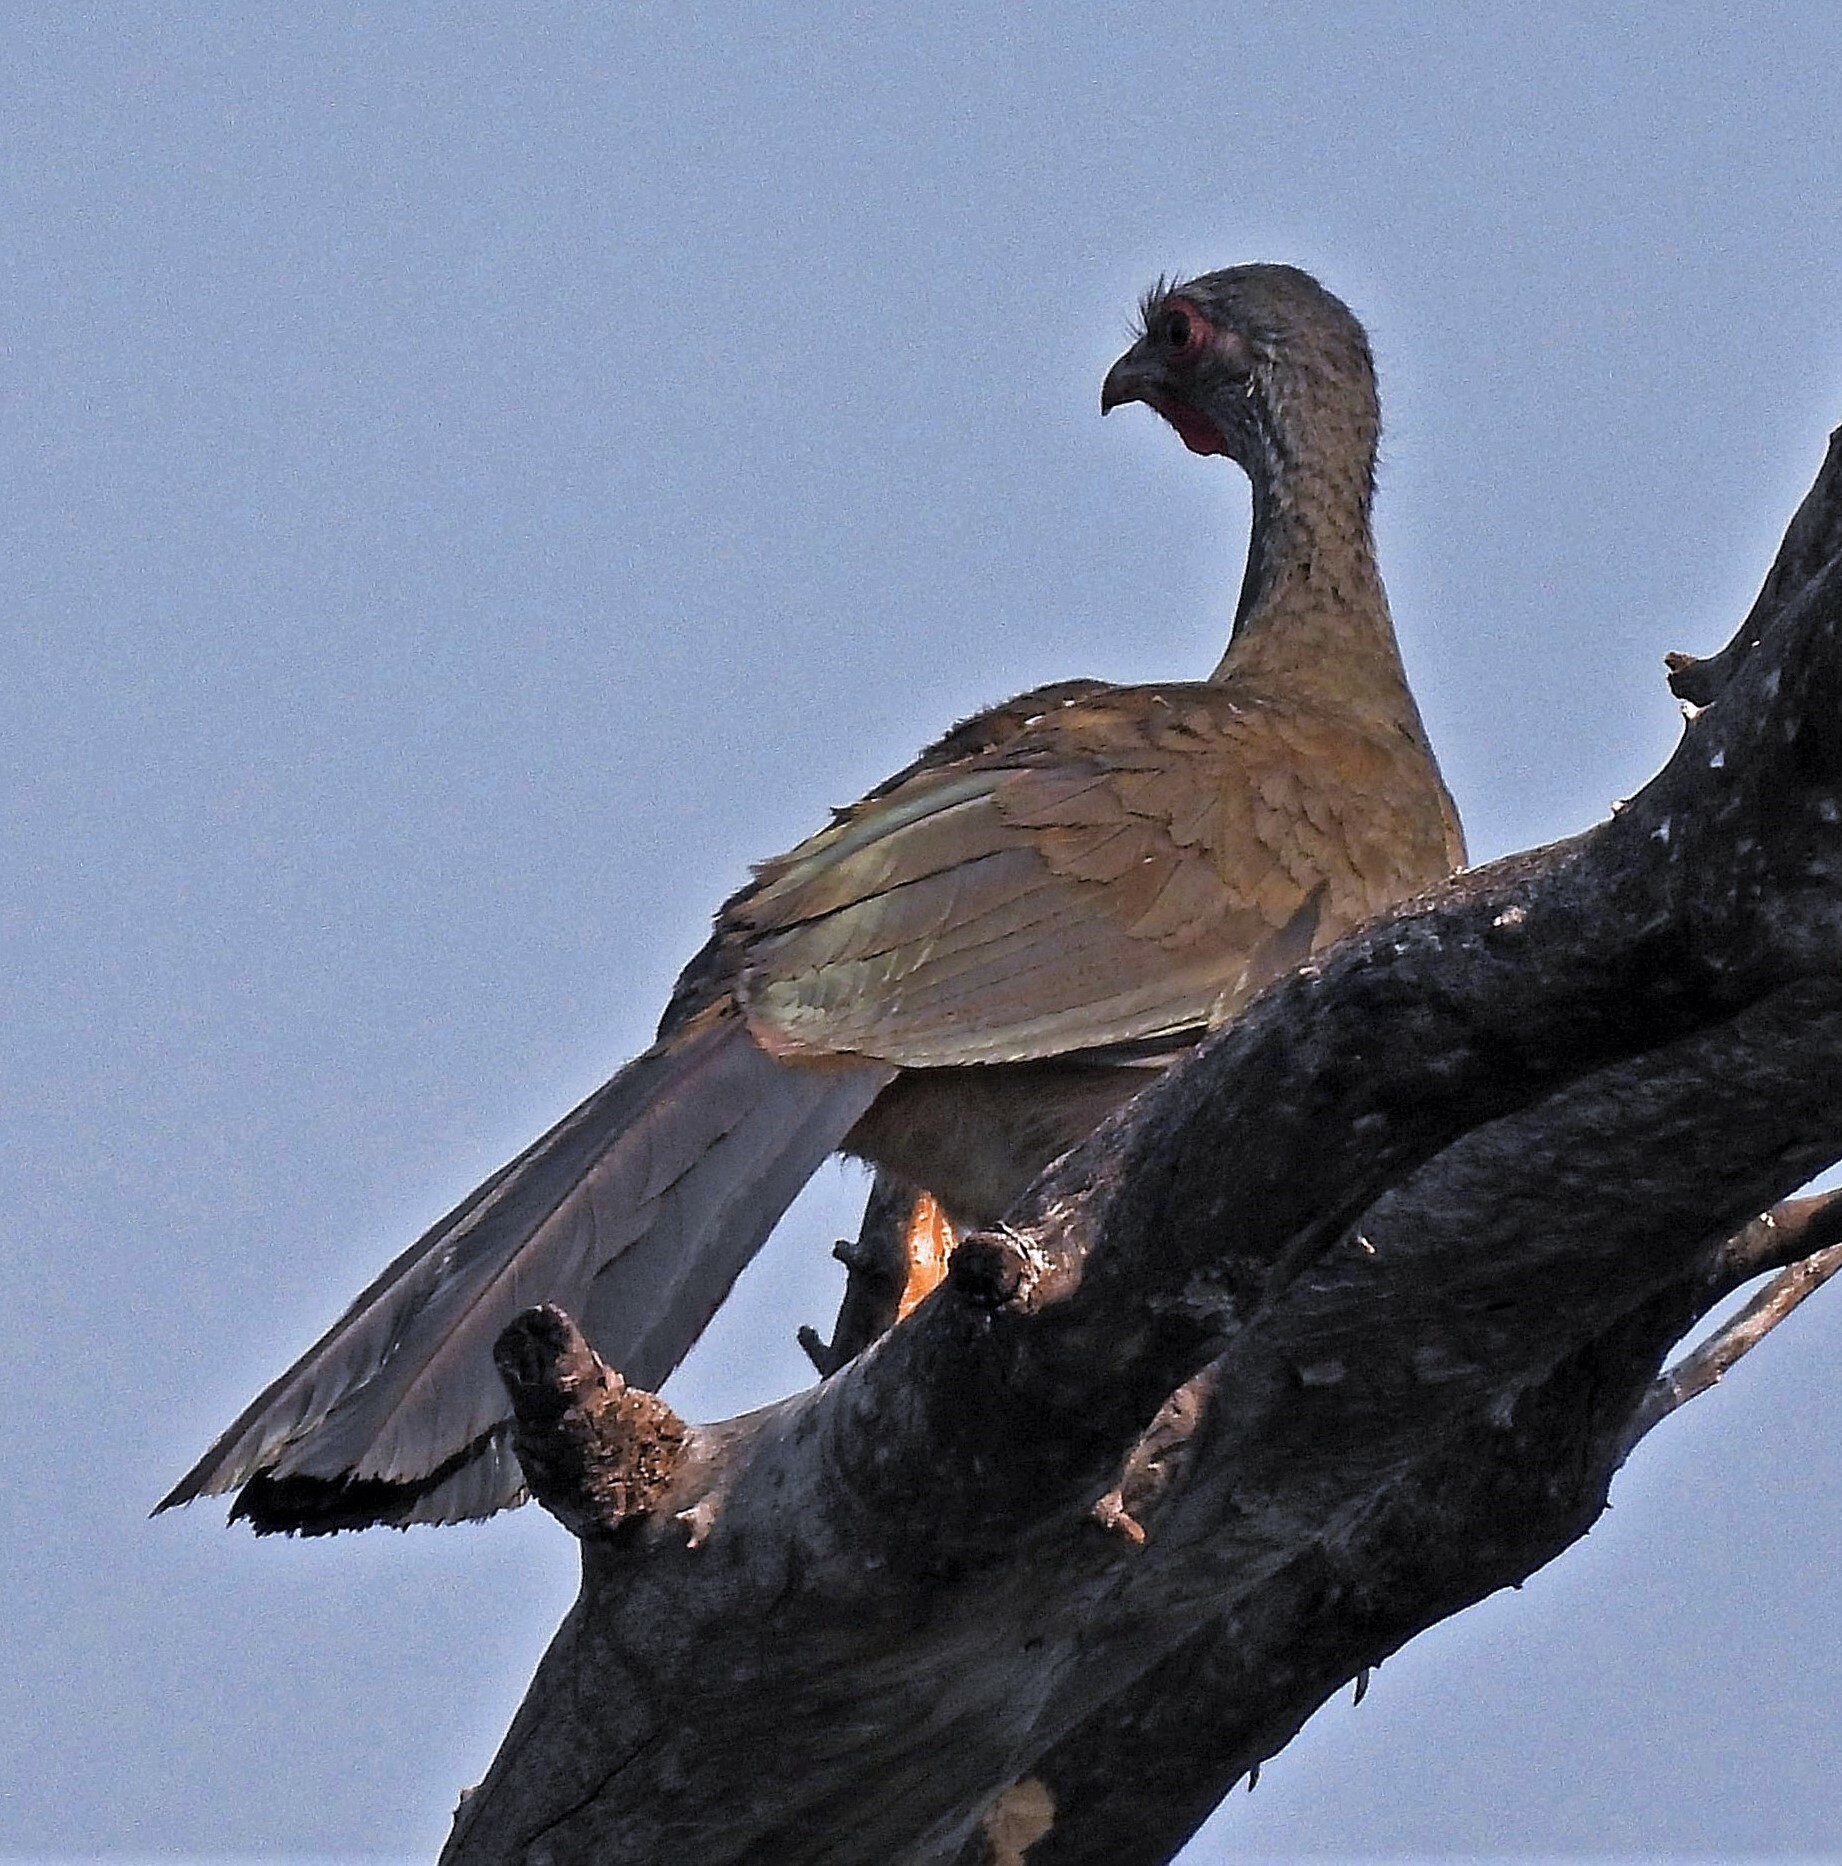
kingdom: Animalia
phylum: Chordata
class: Aves
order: Galliformes
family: Cracidae
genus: Ortalis
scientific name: Ortalis canicollis
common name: Chaco chachalaca
